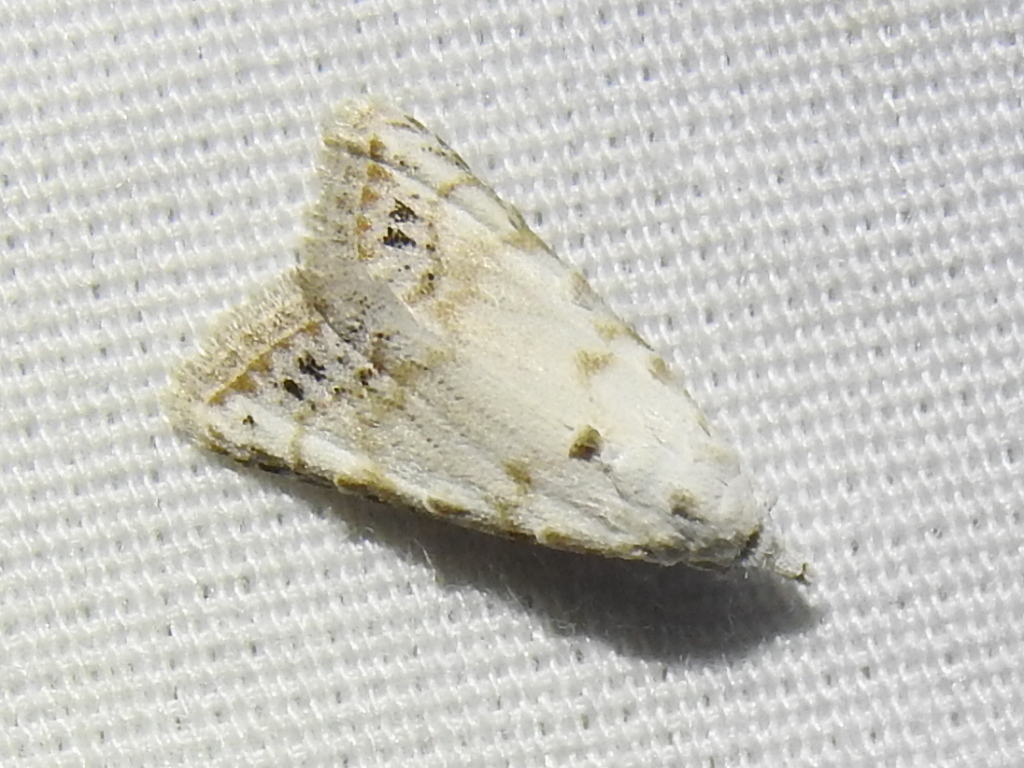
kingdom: Animalia
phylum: Arthropoda
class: Insecta
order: Lepidoptera
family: Nolidae
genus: Nola
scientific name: Nola cereella
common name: Sorghum webworm moth
